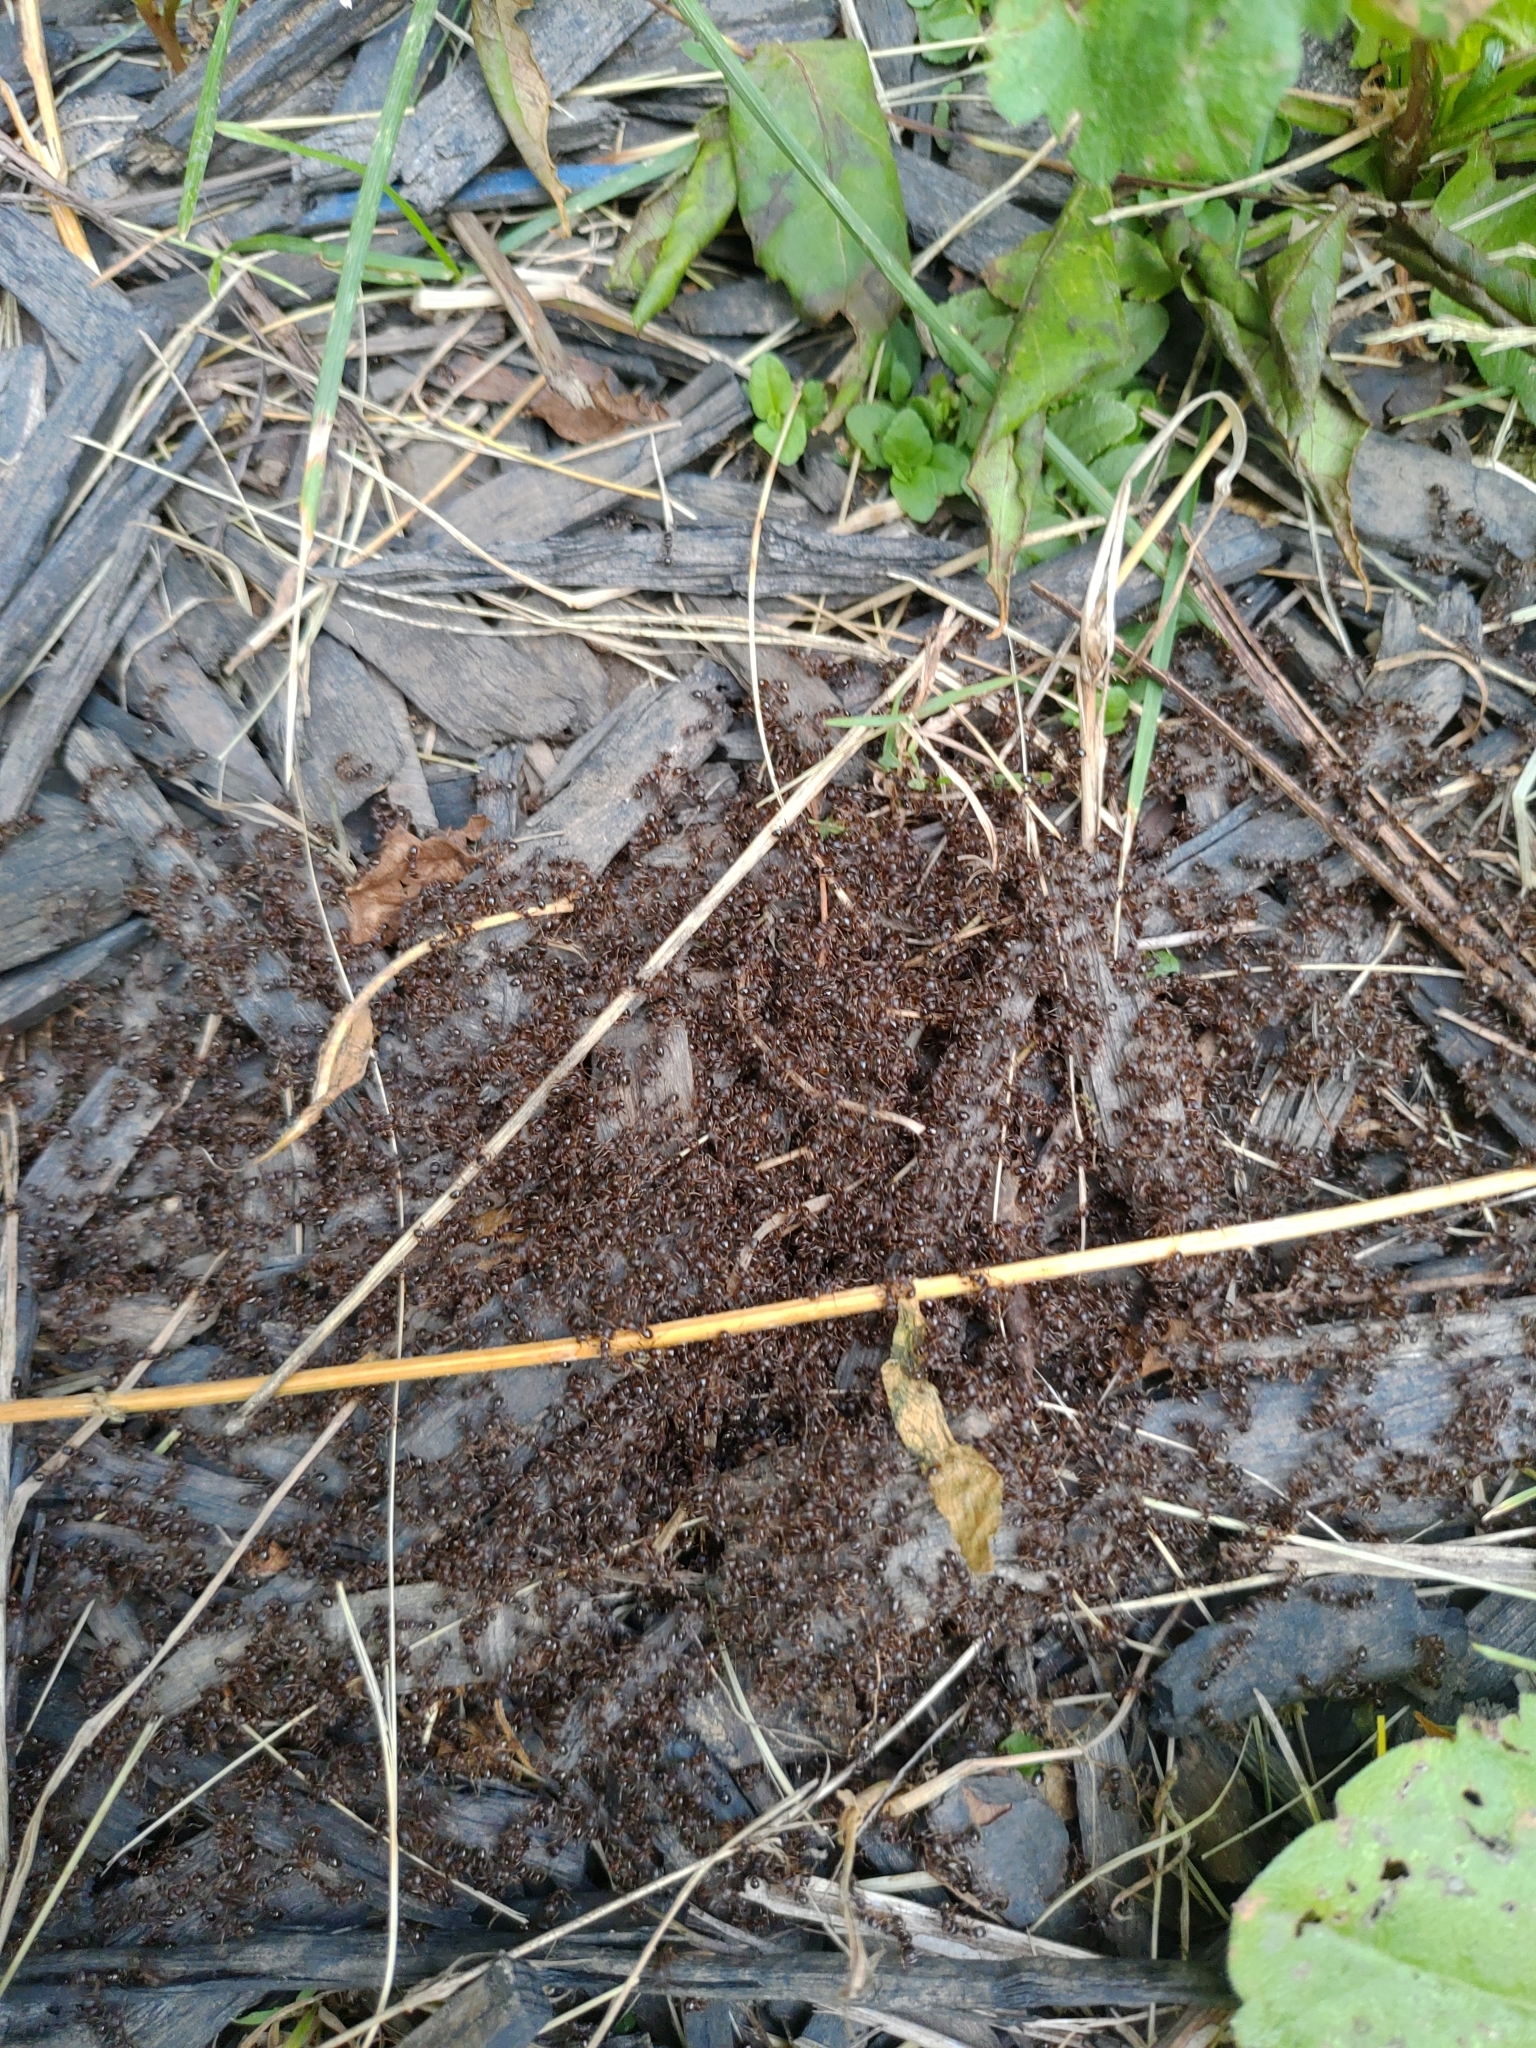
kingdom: Animalia
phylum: Arthropoda
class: Insecta
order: Hymenoptera
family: Formicidae
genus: Tetramorium
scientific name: Tetramorium immigrans
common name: Pavement ant
